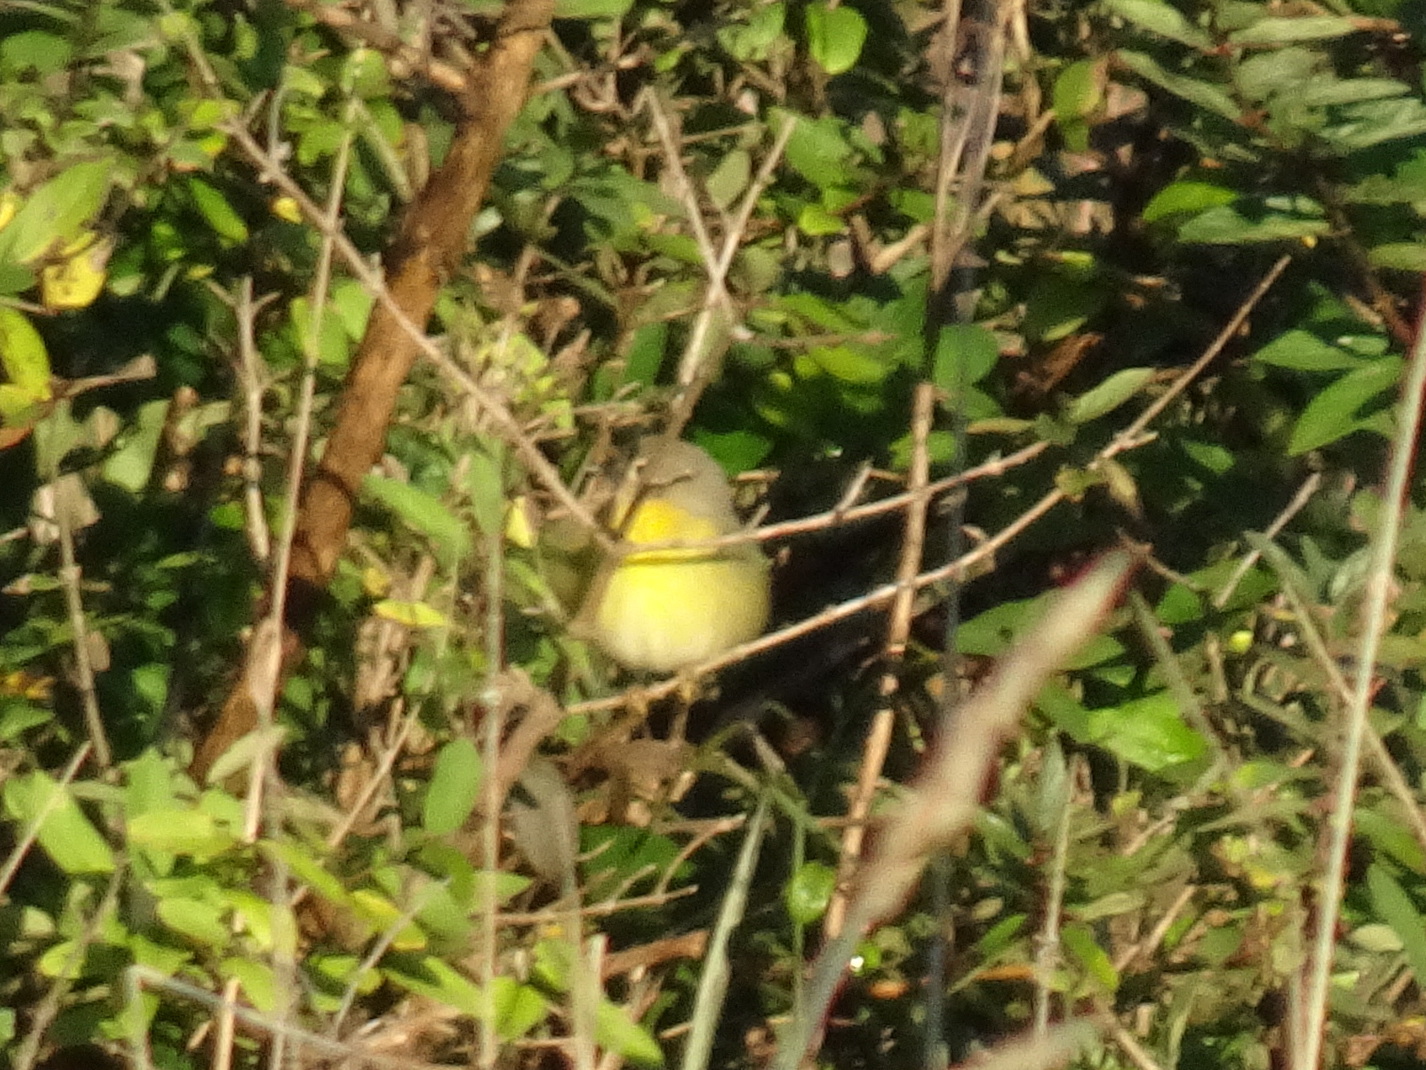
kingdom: Animalia
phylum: Chordata
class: Aves
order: Passeriformes
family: Parulidae
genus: Leiothlypis
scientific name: Leiothlypis ruficapilla
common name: Nashville warbler
